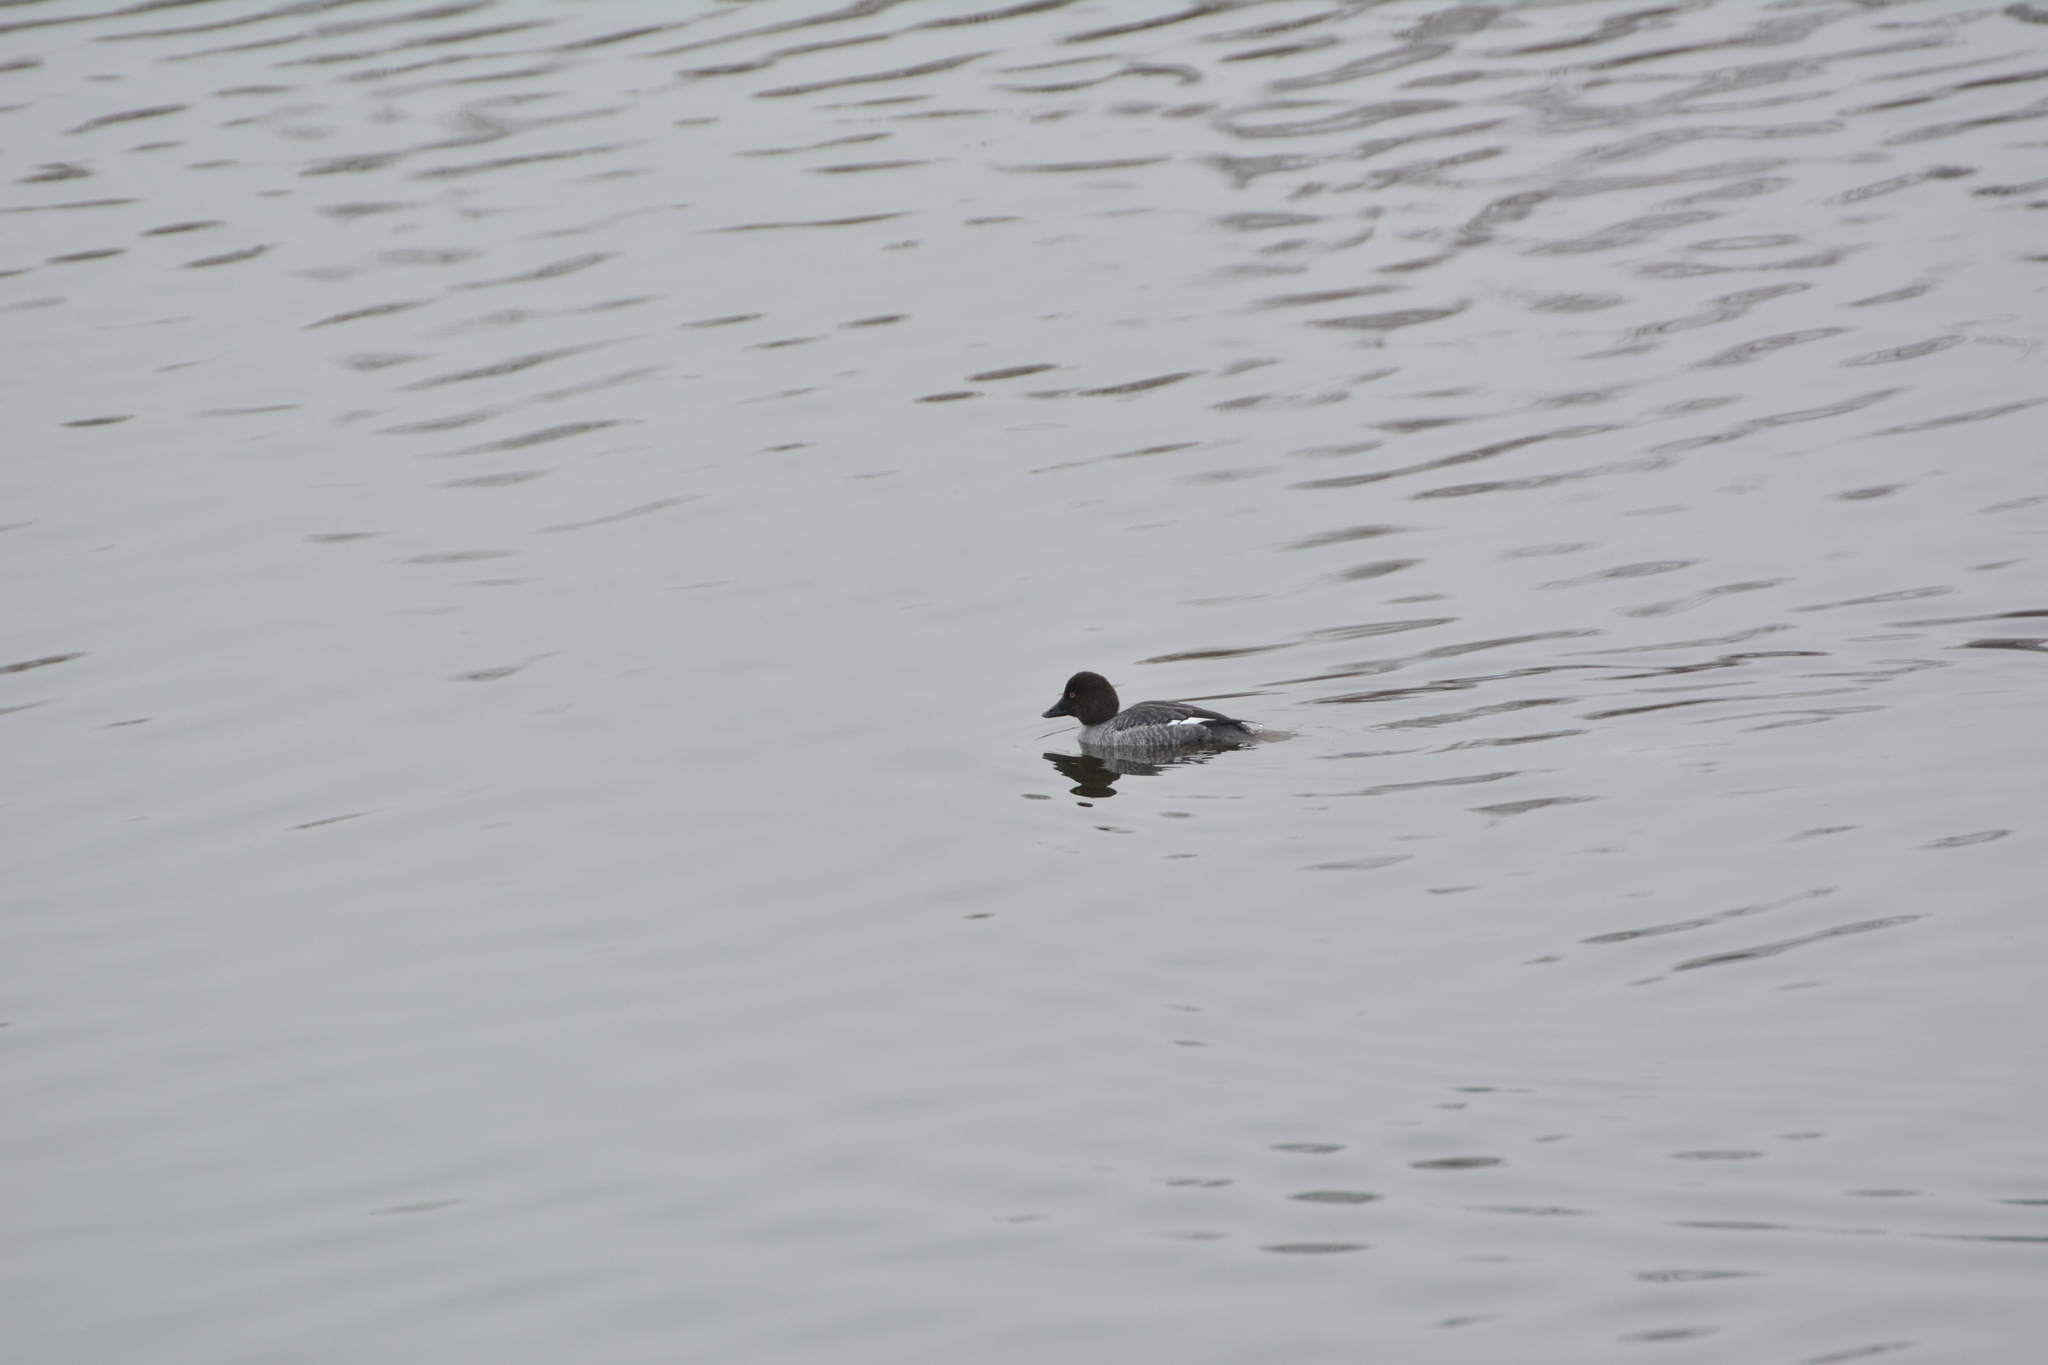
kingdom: Animalia
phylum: Chordata
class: Aves
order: Anseriformes
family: Anatidae
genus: Bucephala
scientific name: Bucephala clangula
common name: Common goldeneye
